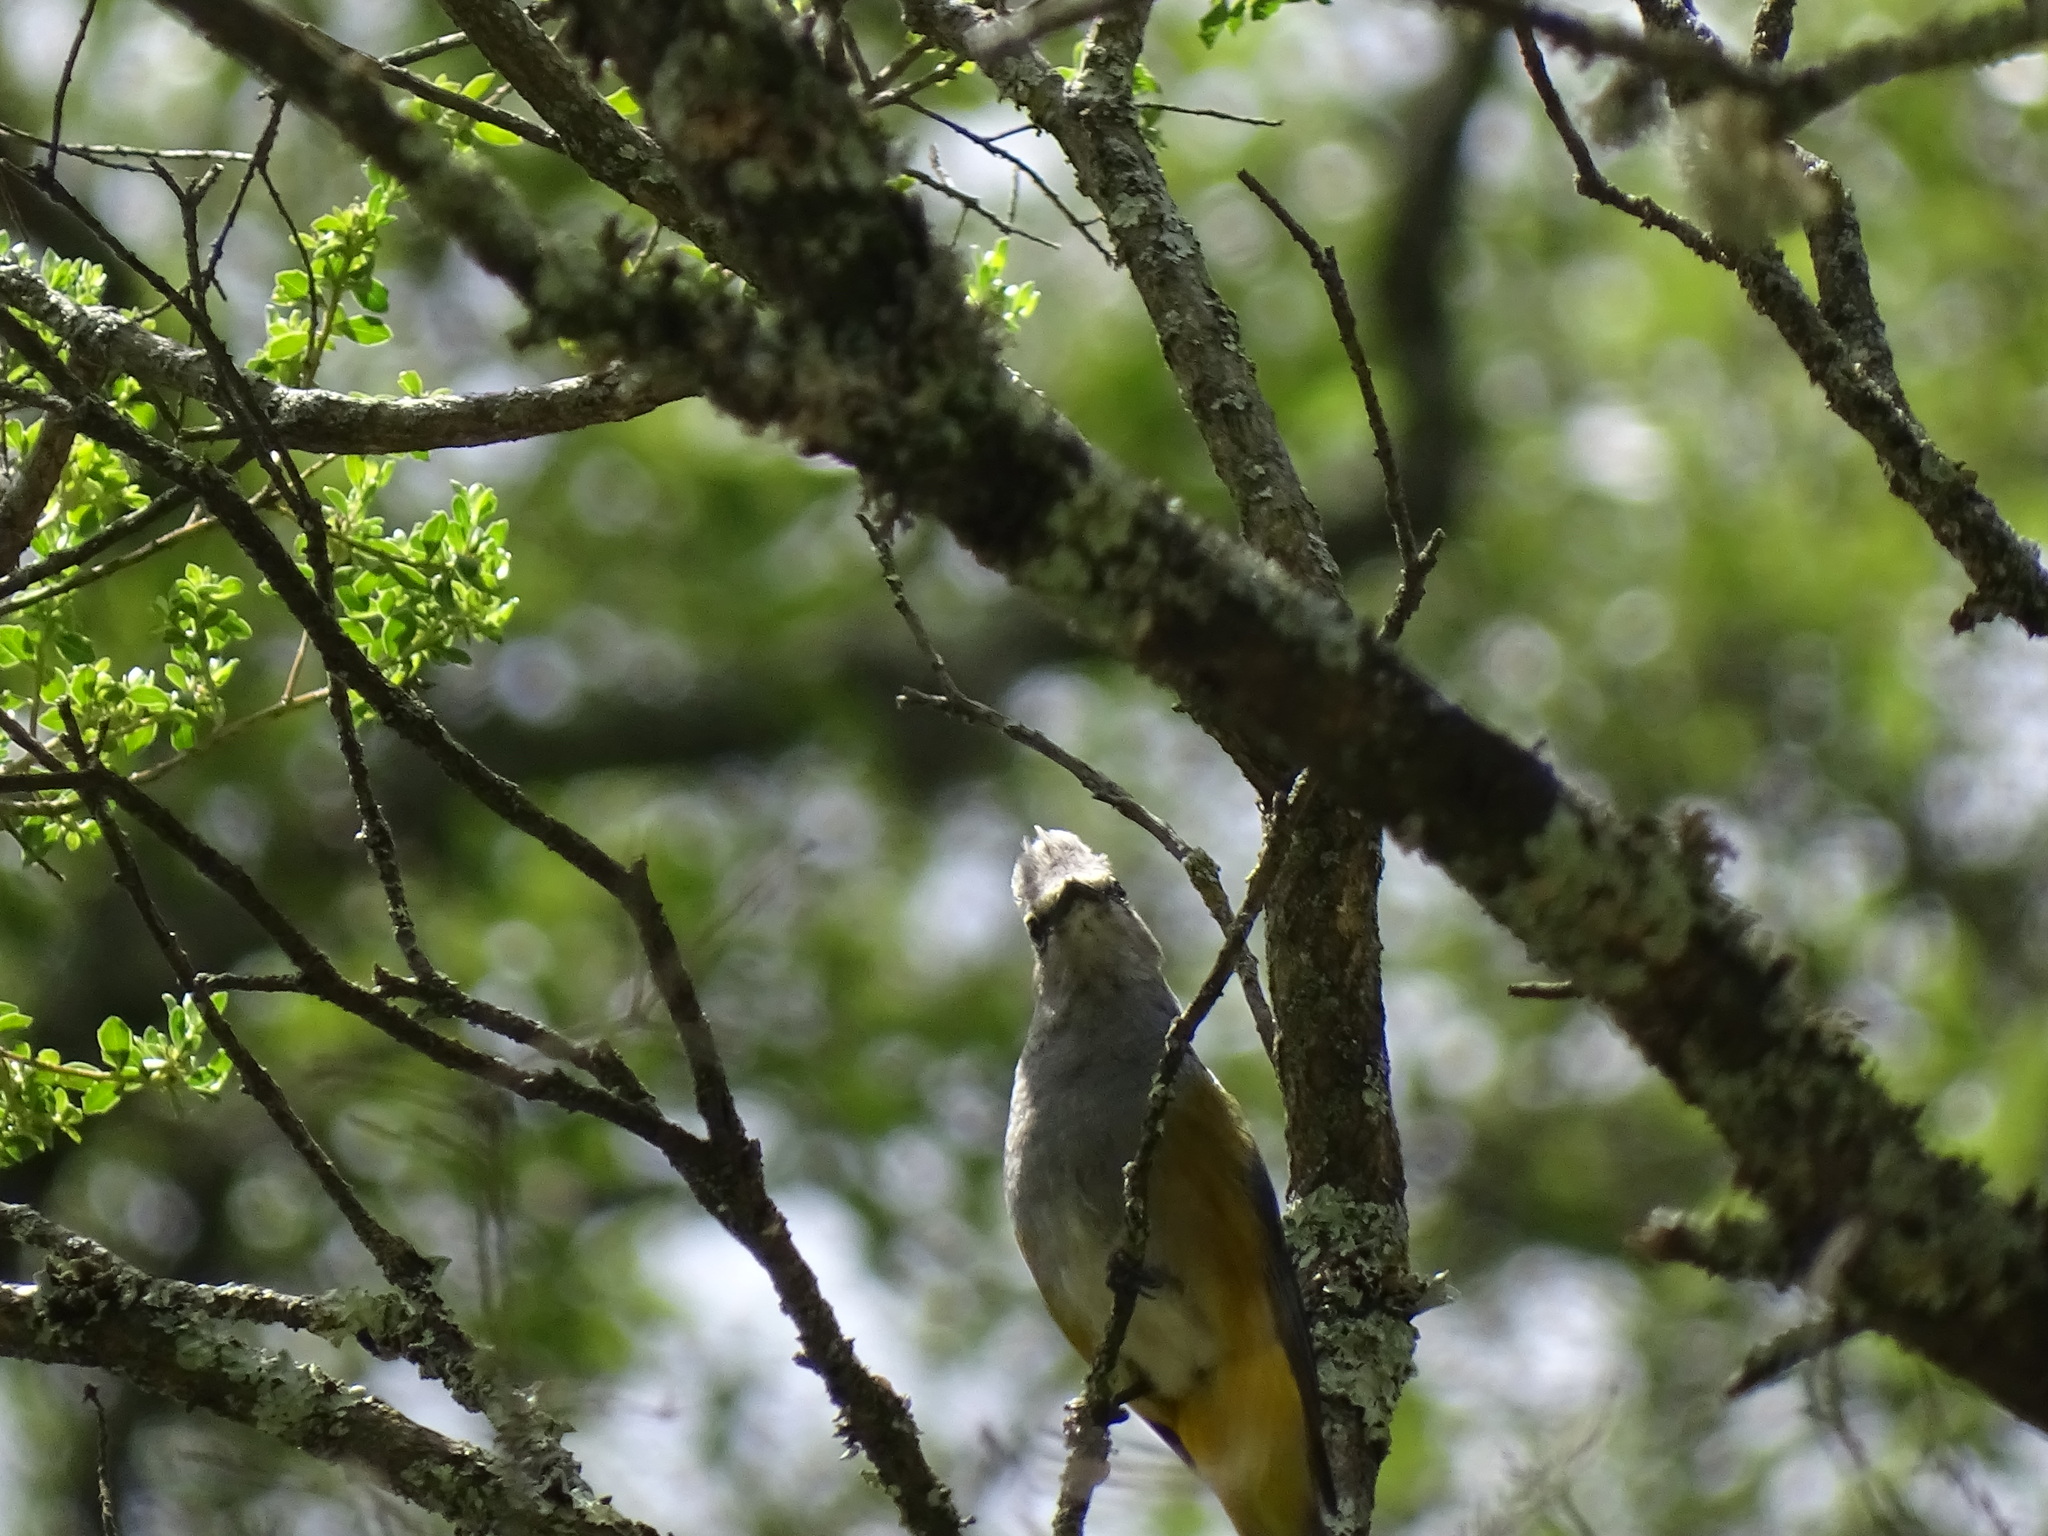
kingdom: Animalia
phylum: Chordata
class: Aves
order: Passeriformes
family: Ptilogonatidae
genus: Ptilogonys
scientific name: Ptilogonys cinereus
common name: Gray silky-flycatcher
